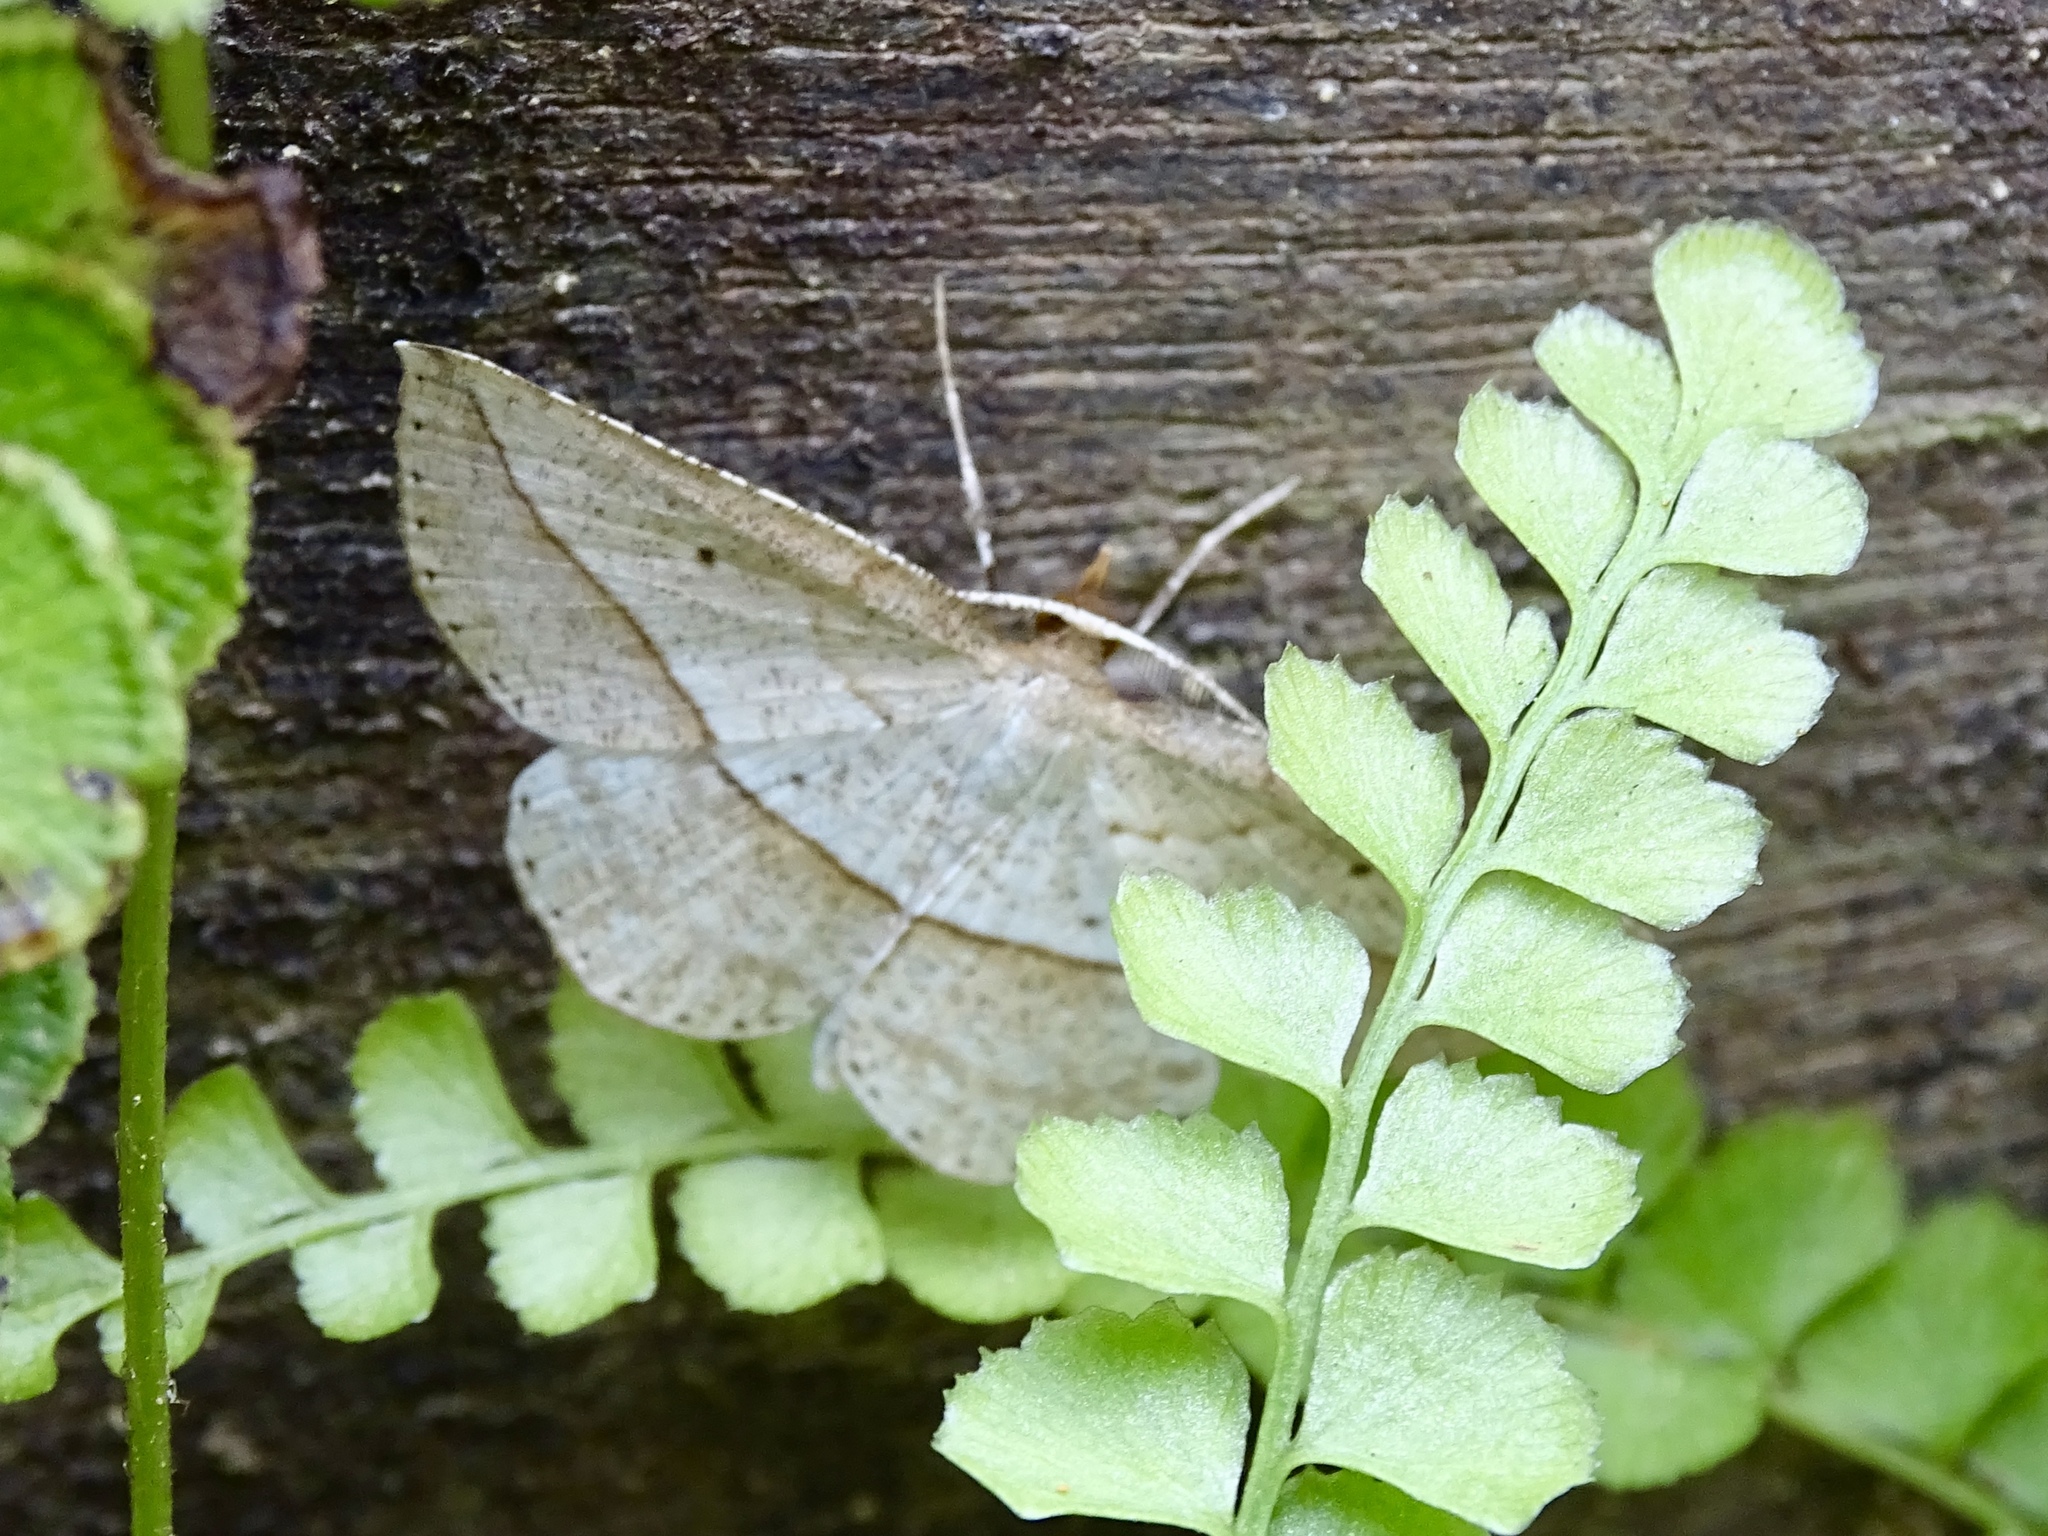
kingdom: Animalia
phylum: Arthropoda
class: Insecta
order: Lepidoptera
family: Geometridae
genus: Heteralex
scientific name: Heteralex unilinea
